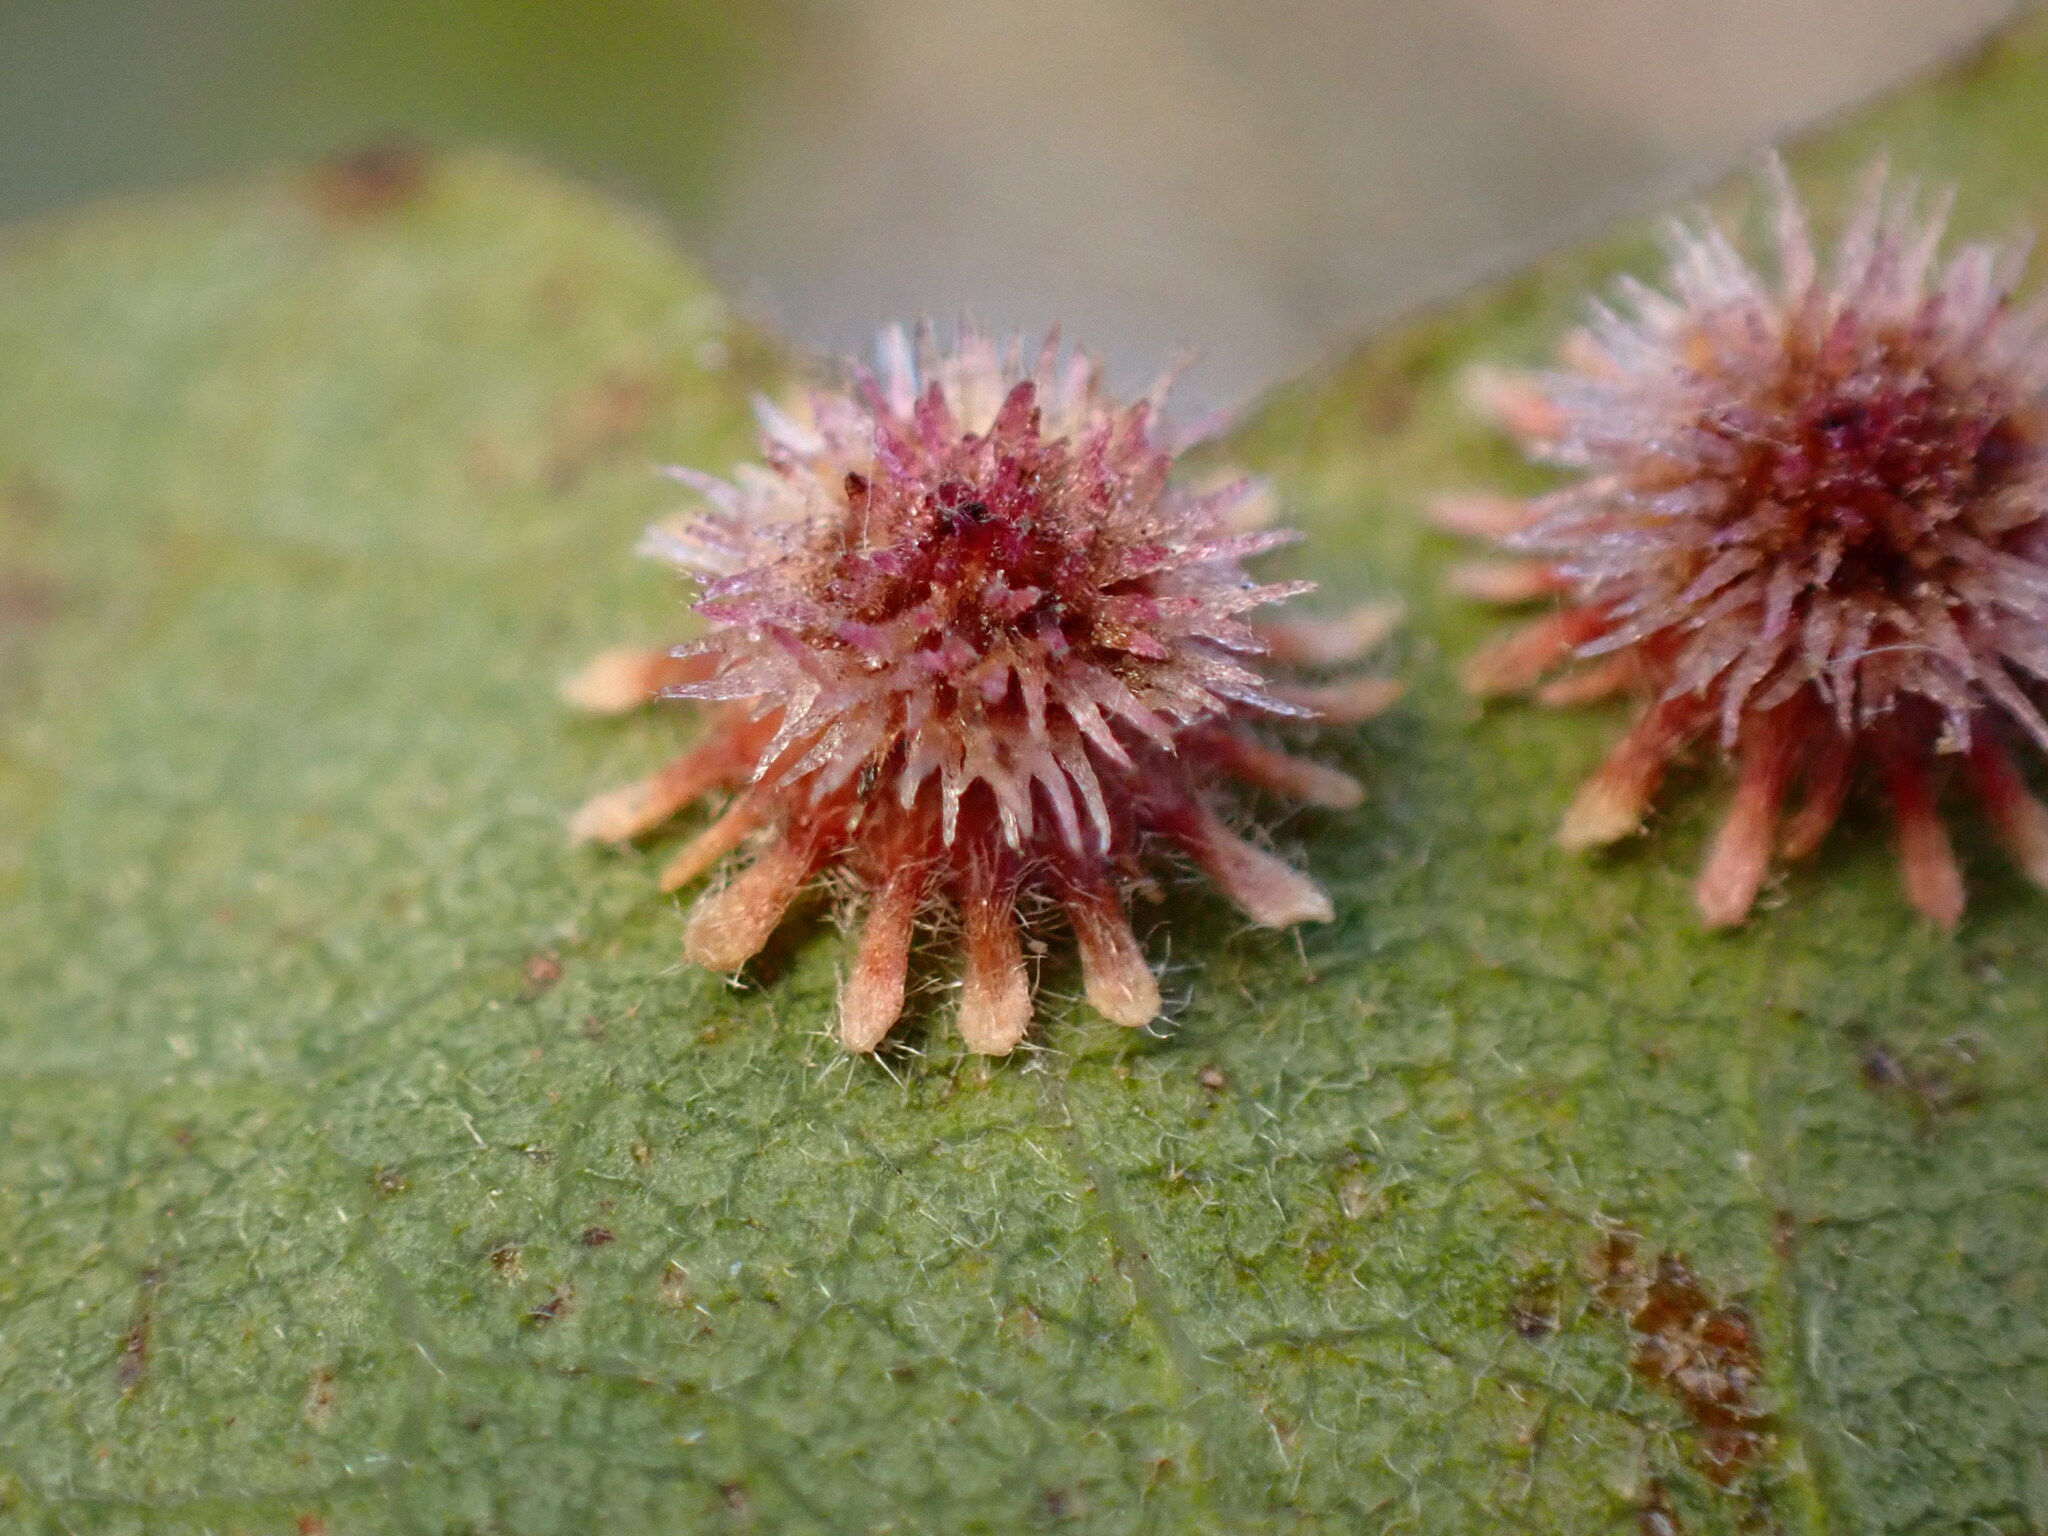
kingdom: Animalia
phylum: Arthropoda
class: Insecta
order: Hymenoptera
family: Cynipidae
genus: Andricus
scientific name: Andricus
